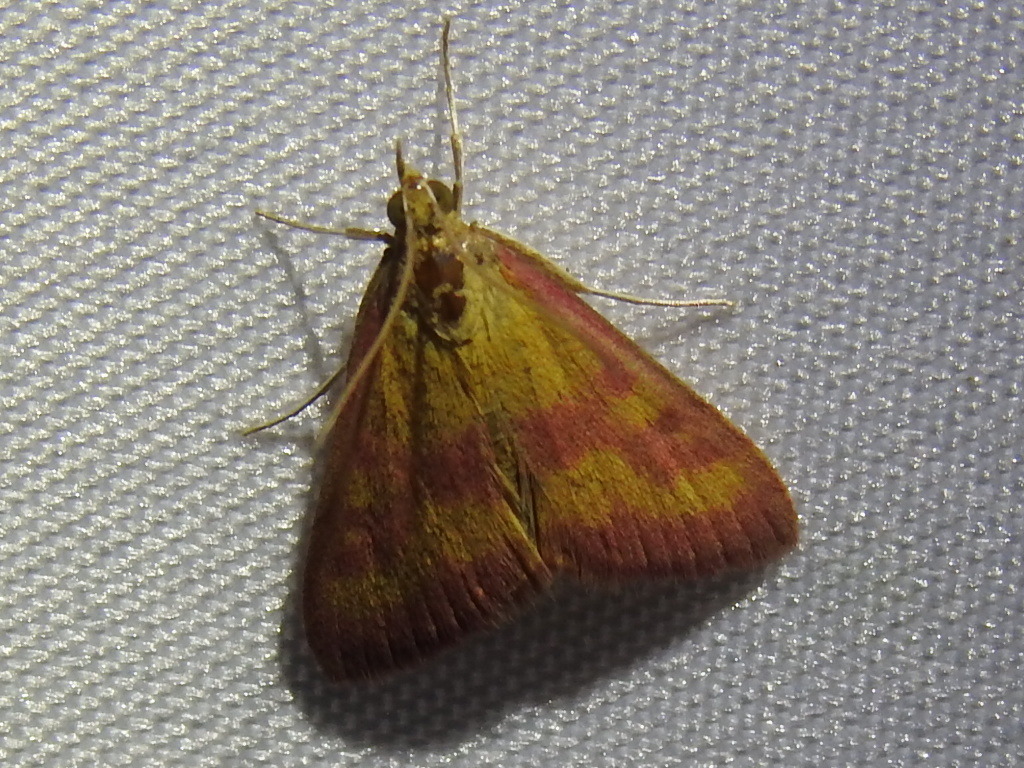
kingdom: Animalia
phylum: Arthropoda
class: Insecta
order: Lepidoptera
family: Crambidae
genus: Pyrausta
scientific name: Pyrausta laticlavia
